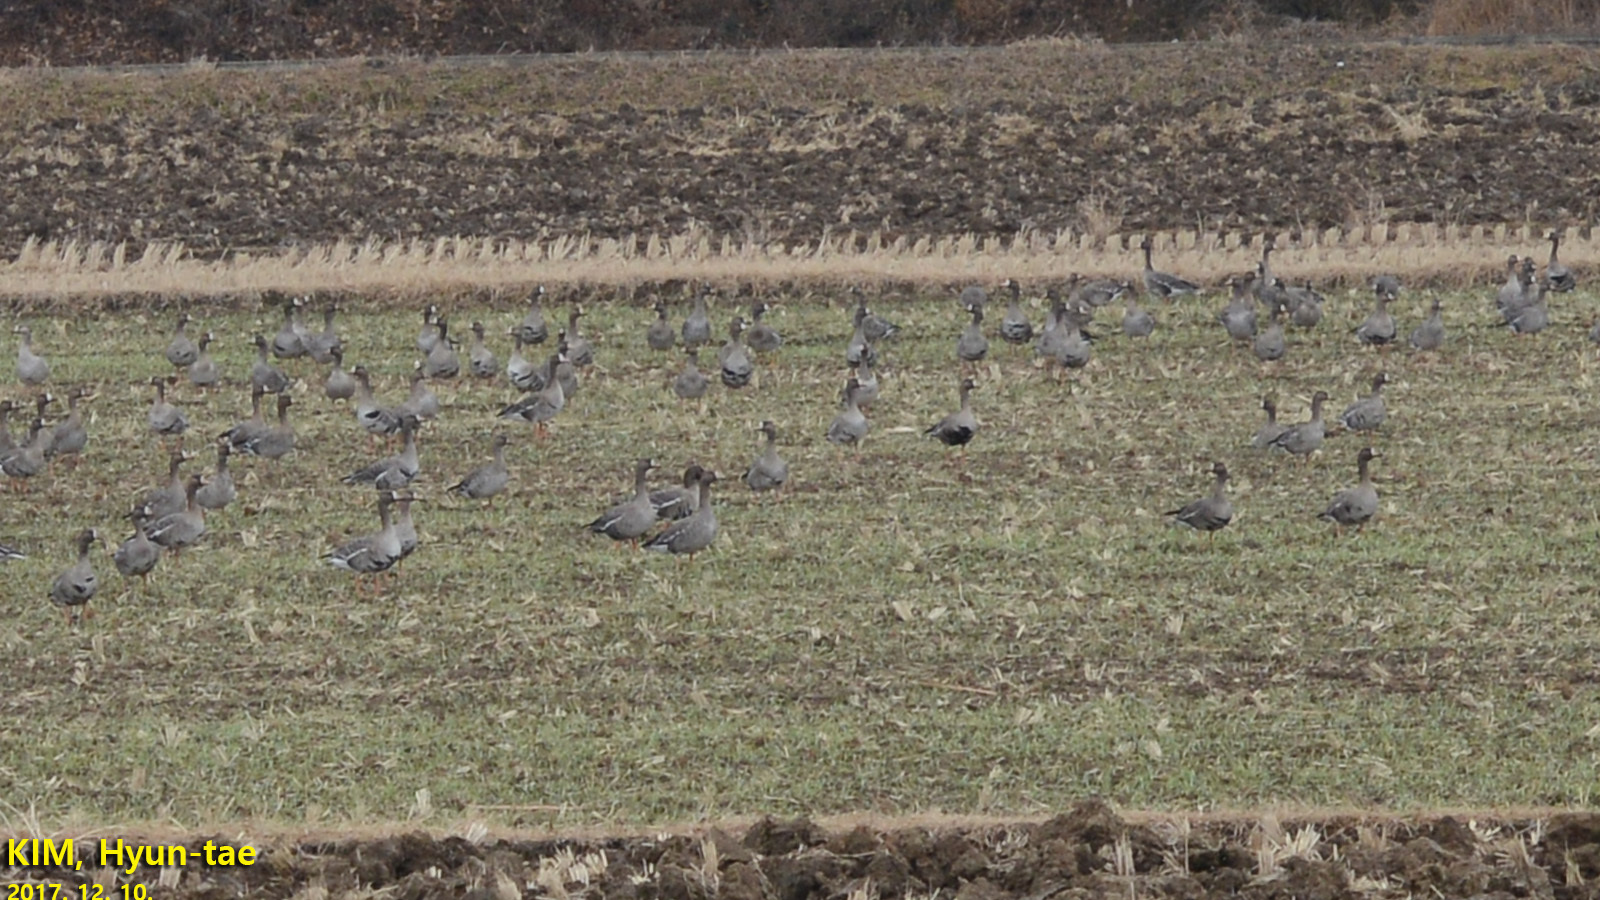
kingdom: Animalia
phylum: Chordata
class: Aves
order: Anseriformes
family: Anatidae
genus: Anser
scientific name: Anser albifrons
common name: Greater white-fronted goose
